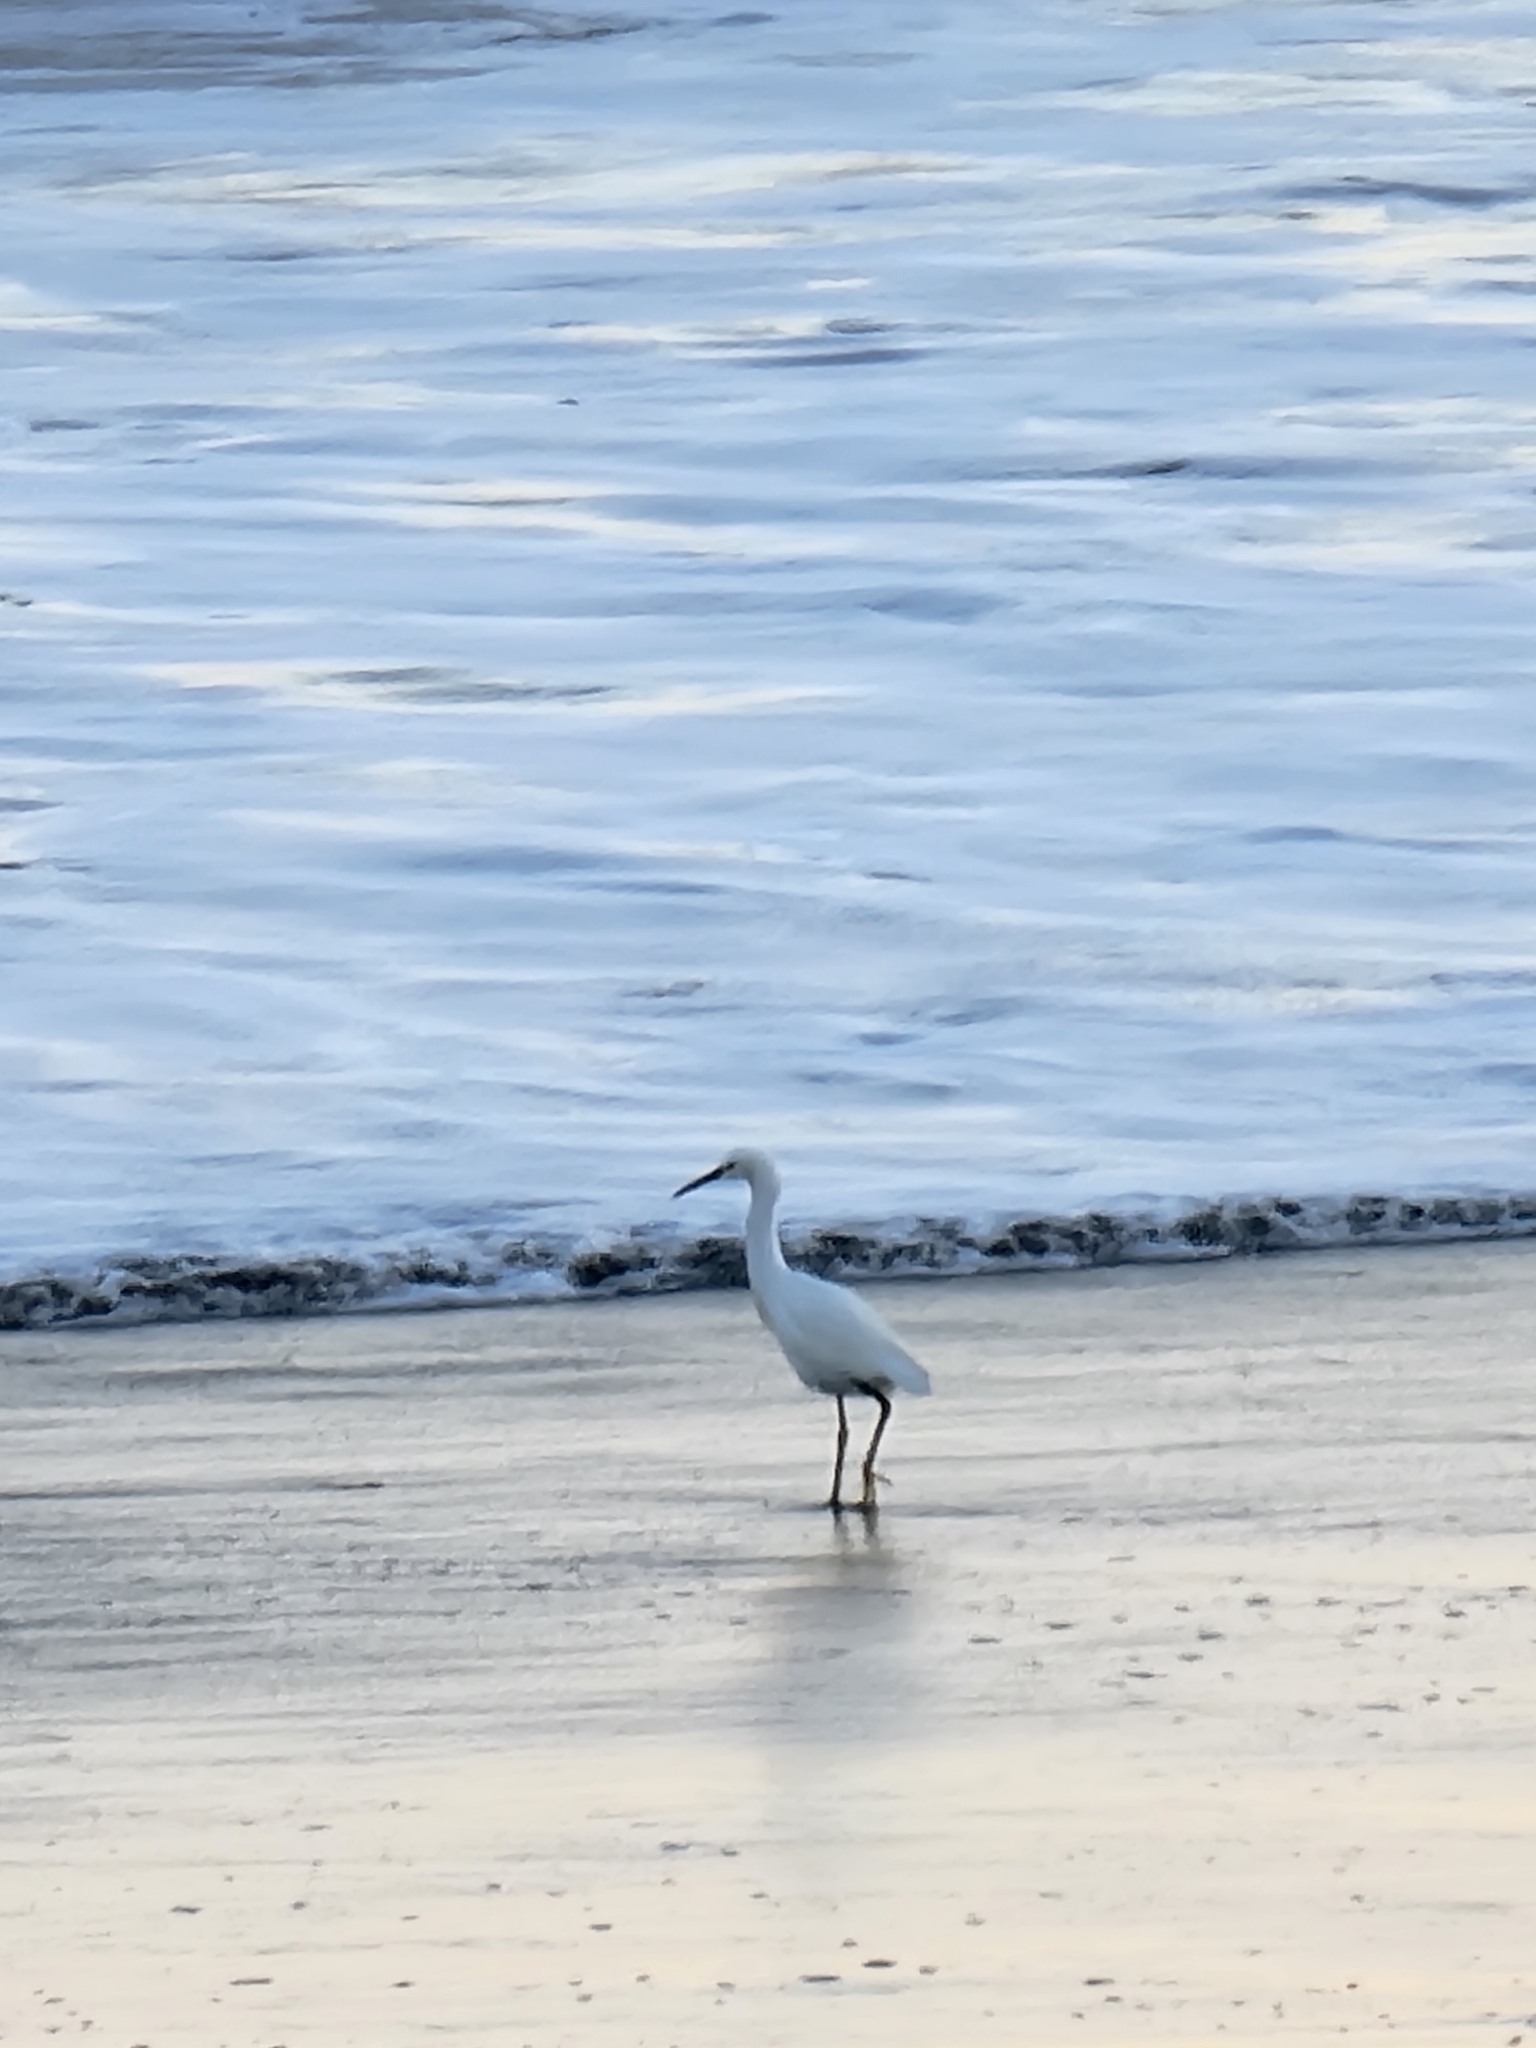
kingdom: Animalia
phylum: Chordata
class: Aves
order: Pelecaniformes
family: Ardeidae
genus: Egretta
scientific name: Egretta thula
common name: Snowy egret
